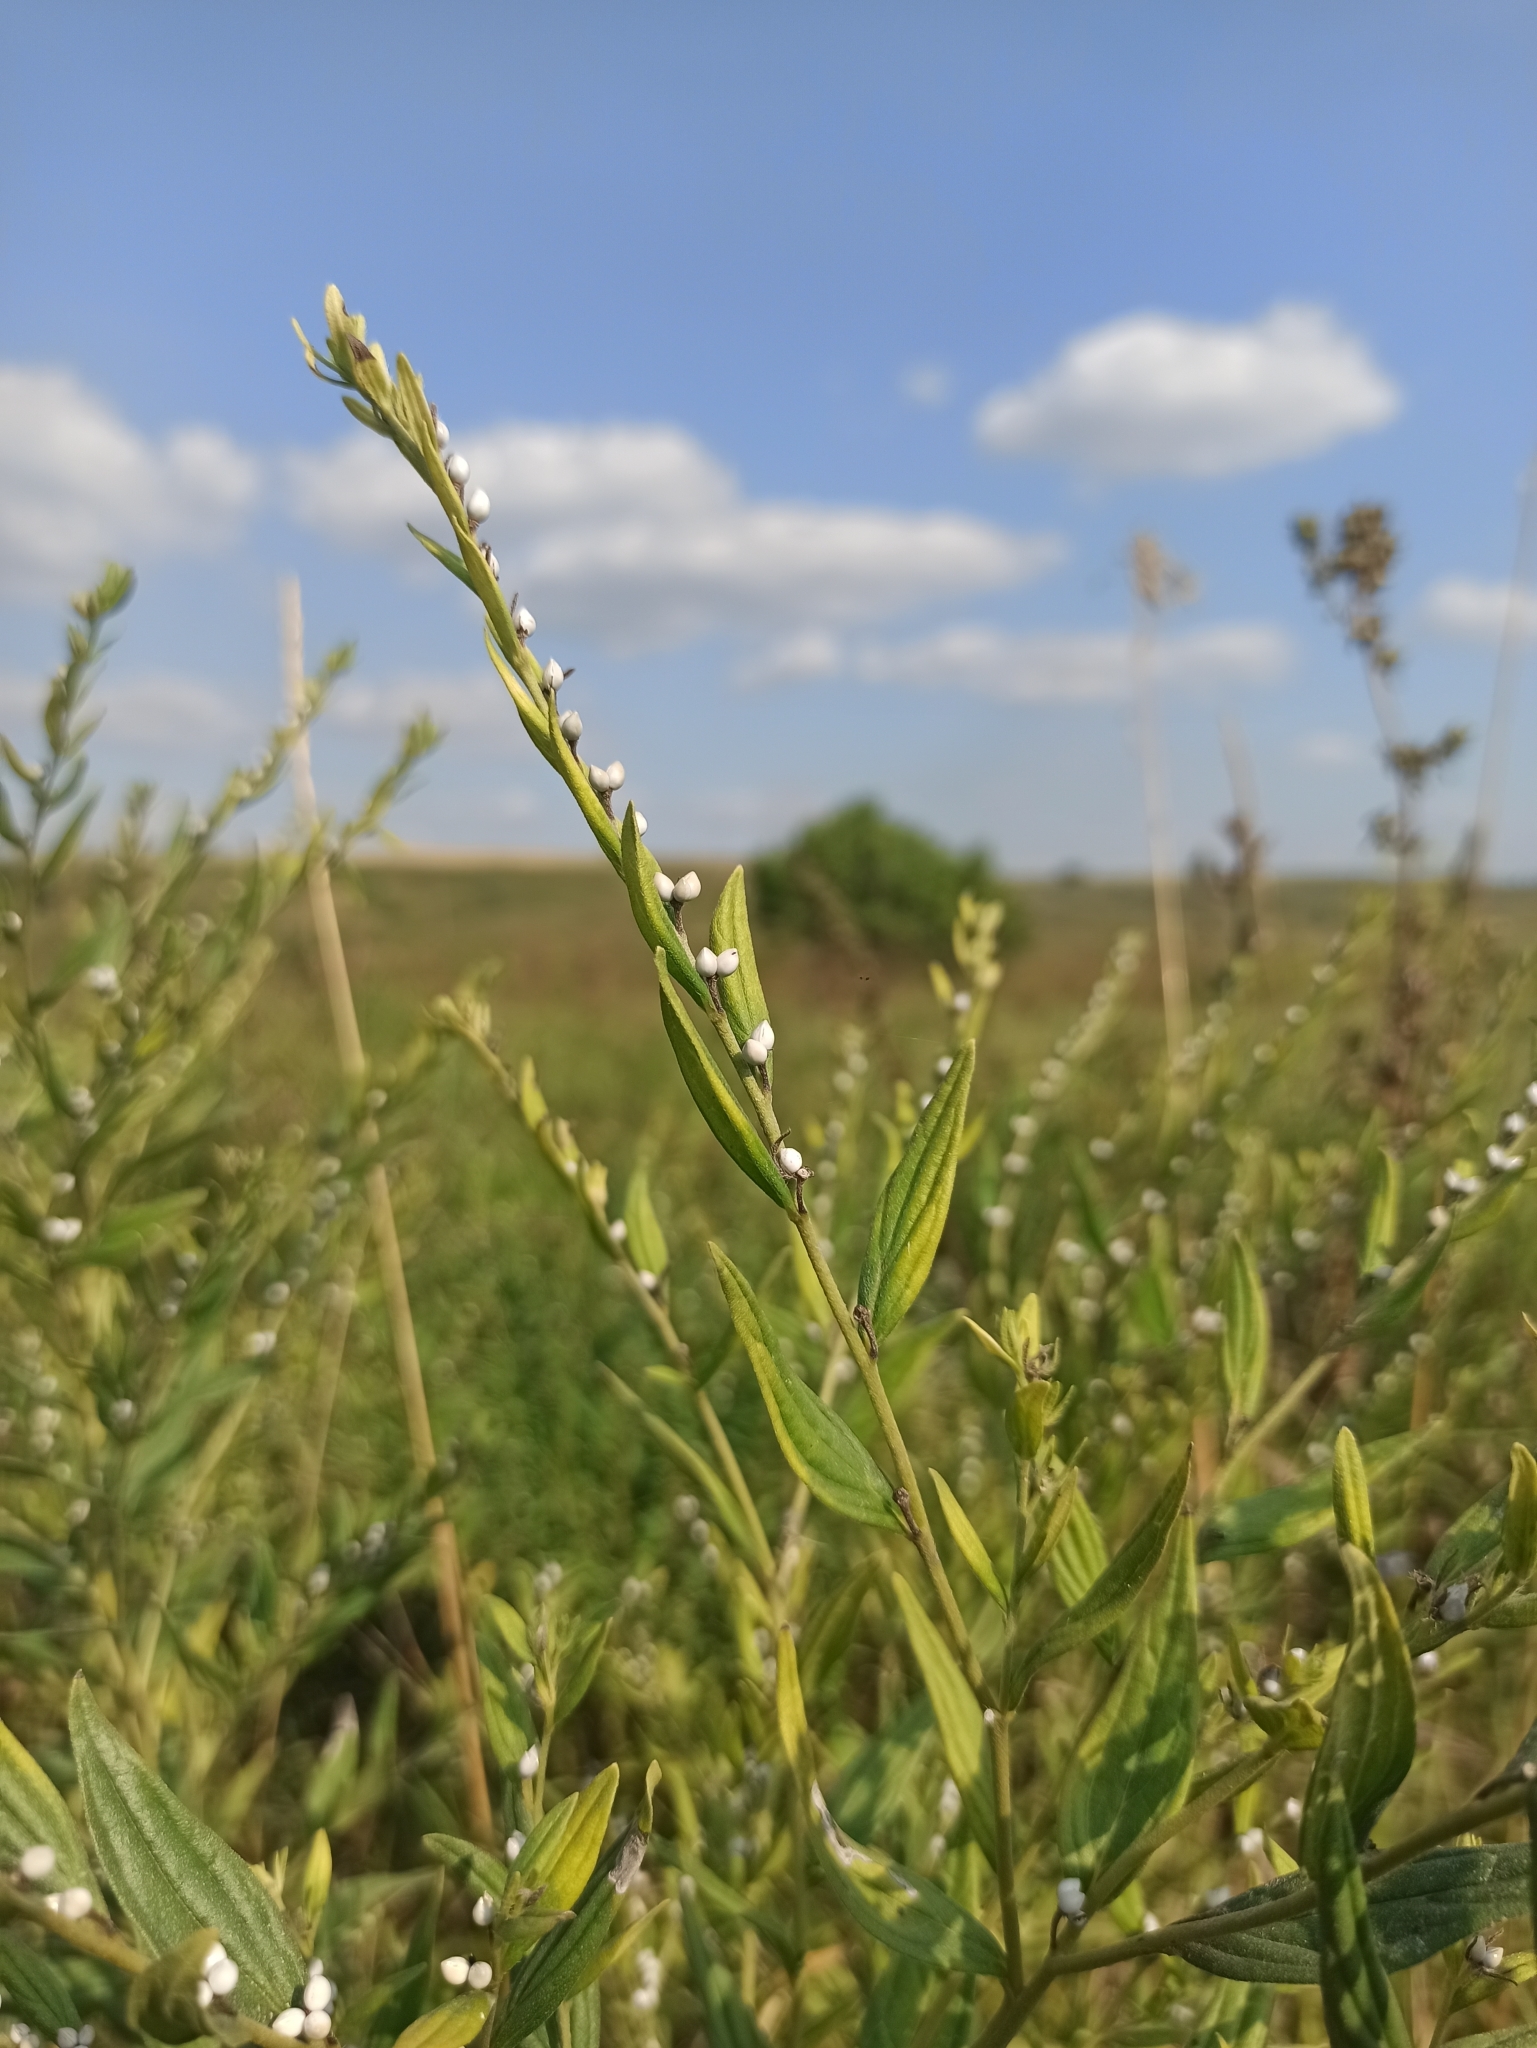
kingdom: Plantae
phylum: Tracheophyta
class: Magnoliopsida
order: Boraginales
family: Boraginaceae
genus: Lithospermum
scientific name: Lithospermum officinale
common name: Common gromwell
